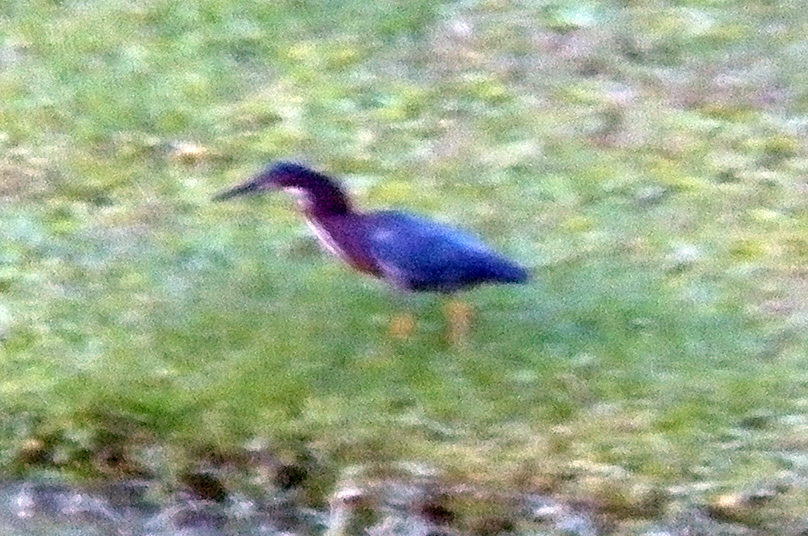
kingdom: Animalia
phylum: Chordata
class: Aves
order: Pelecaniformes
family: Ardeidae
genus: Butorides
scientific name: Butorides virescens
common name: Green heron
